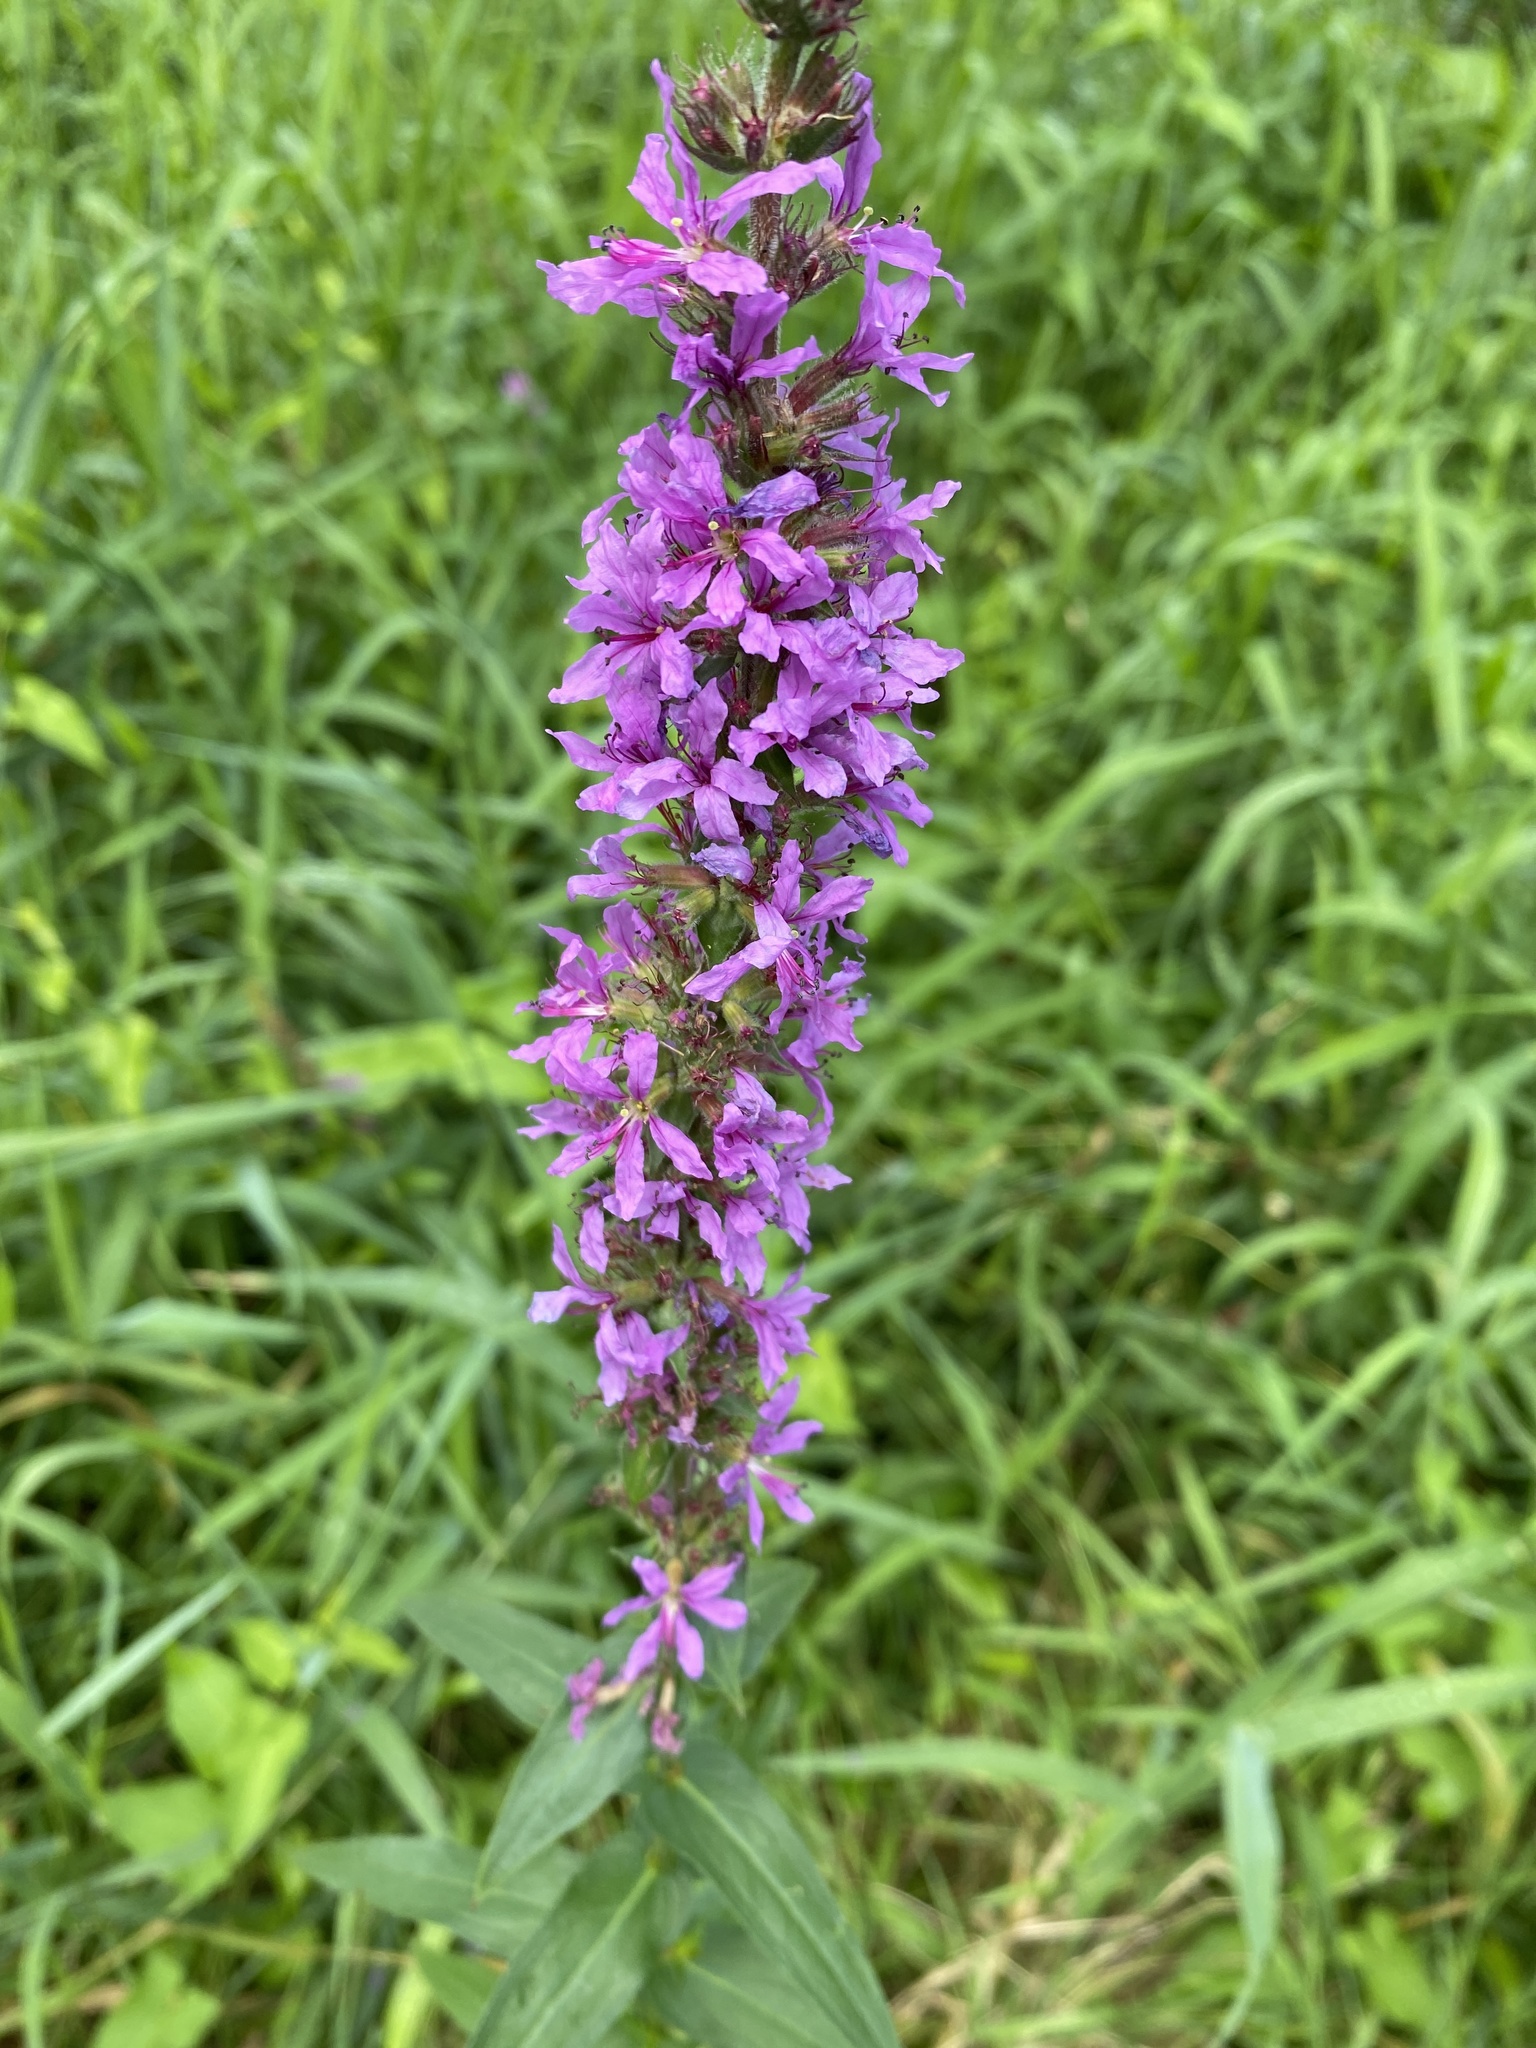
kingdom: Plantae
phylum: Tracheophyta
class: Magnoliopsida
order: Myrtales
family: Lythraceae
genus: Lythrum
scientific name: Lythrum salicaria
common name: Purple loosestrife
